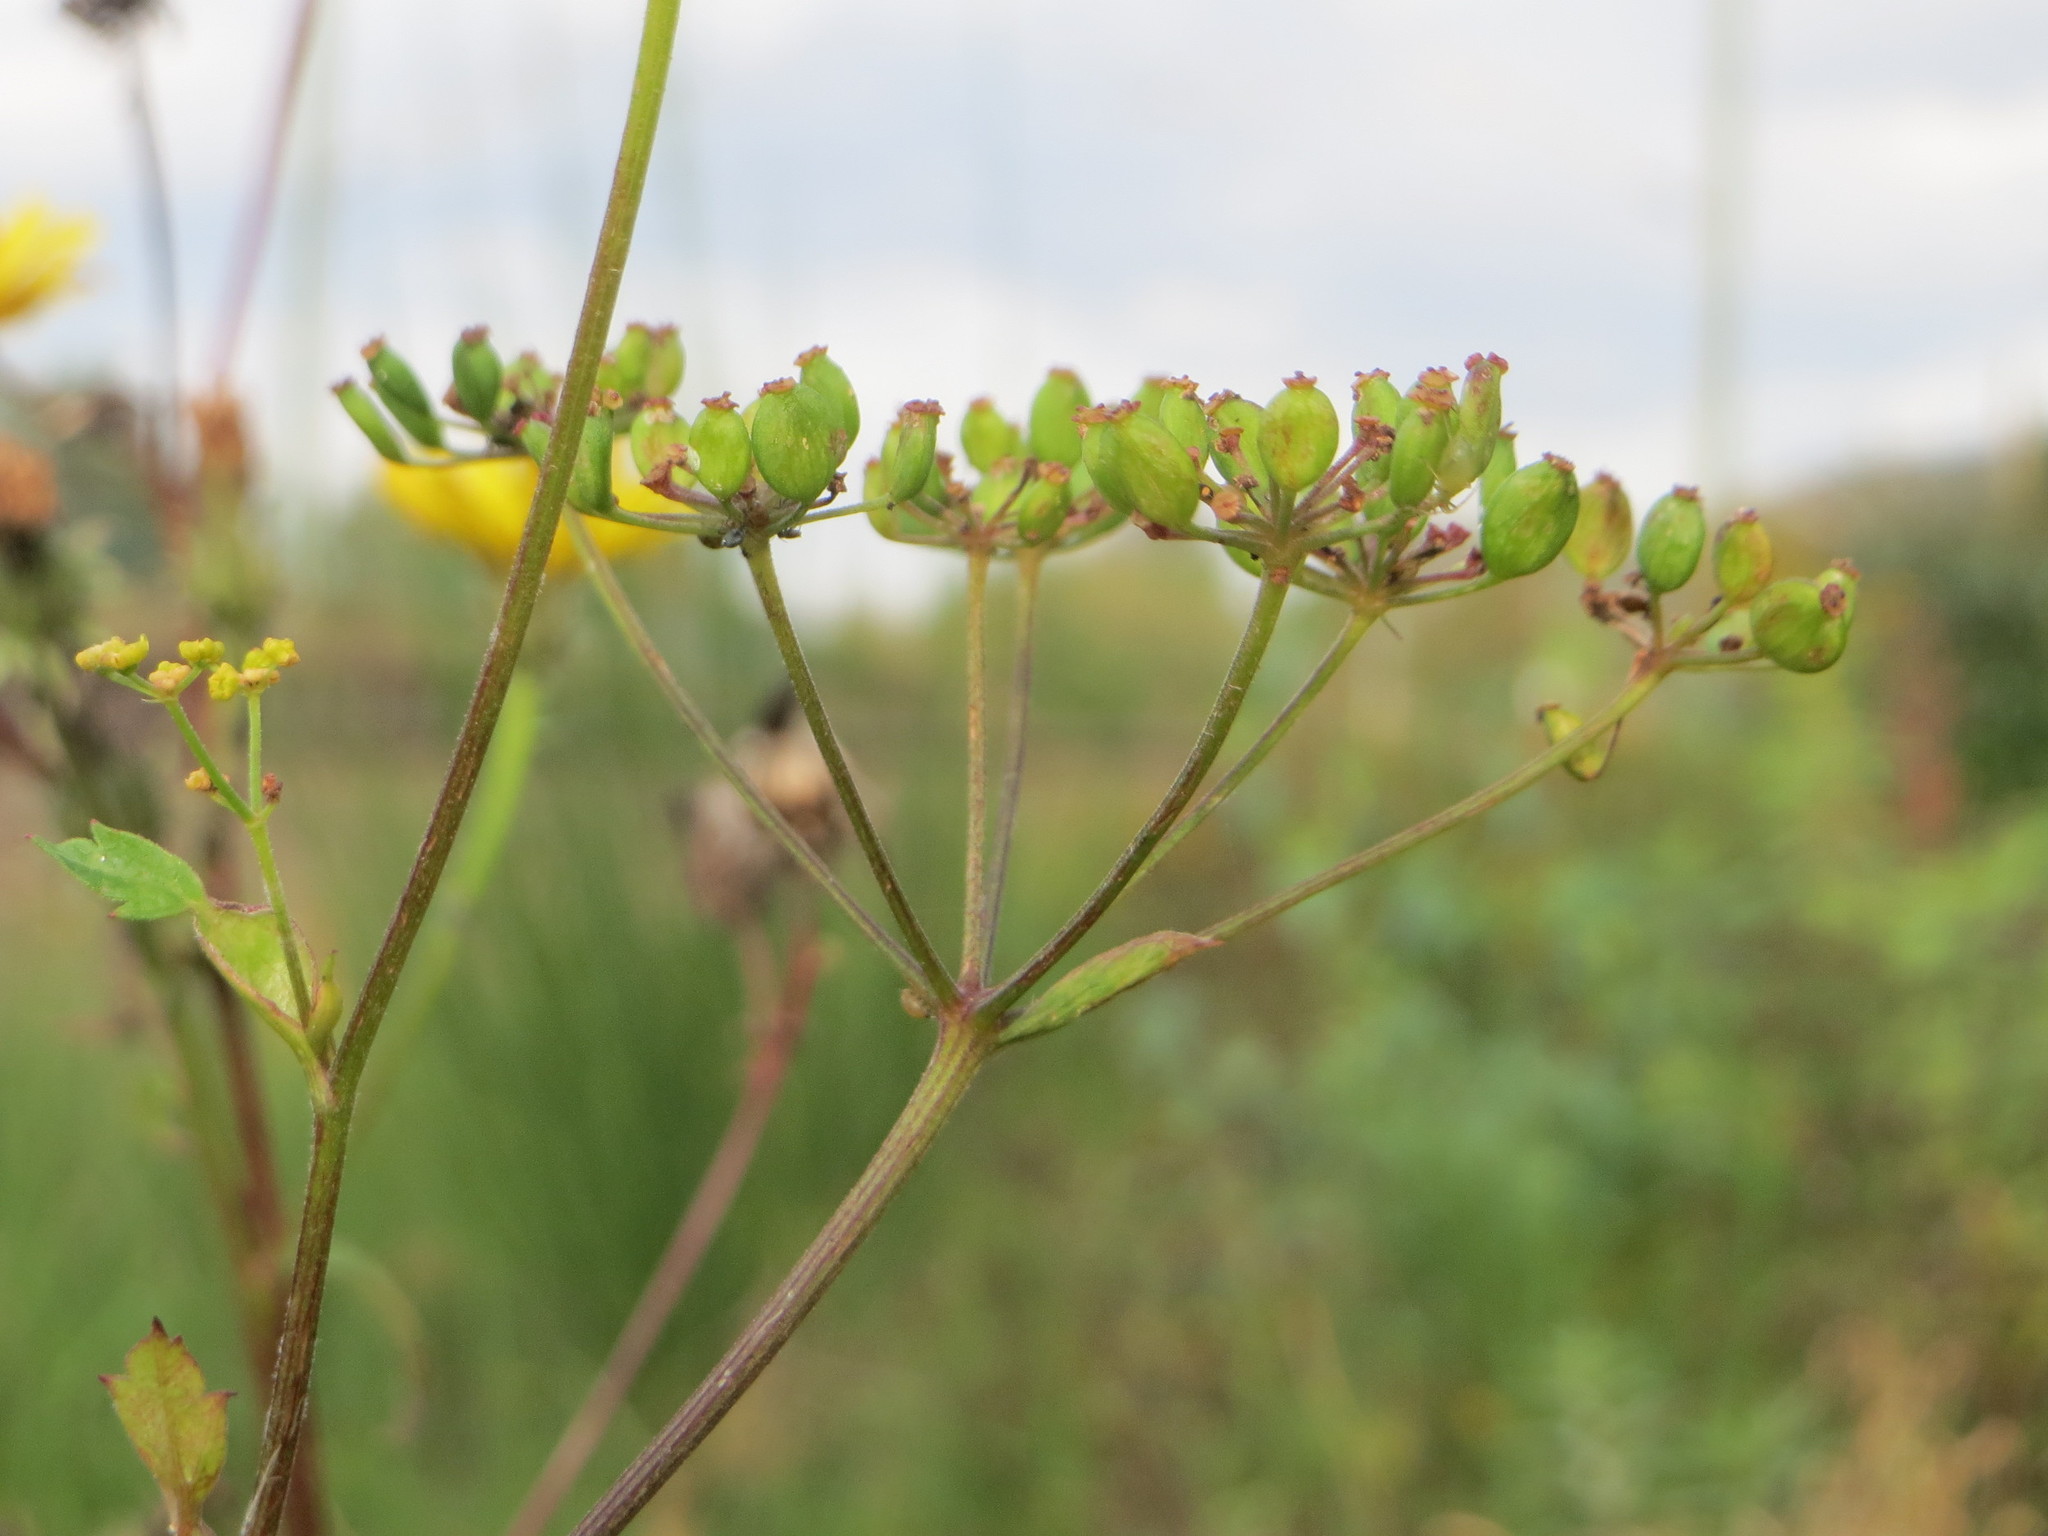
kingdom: Plantae
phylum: Tracheophyta
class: Magnoliopsida
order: Apiales
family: Apiaceae
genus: Pastinaca
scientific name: Pastinaca sativa
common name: Wild parsnip
